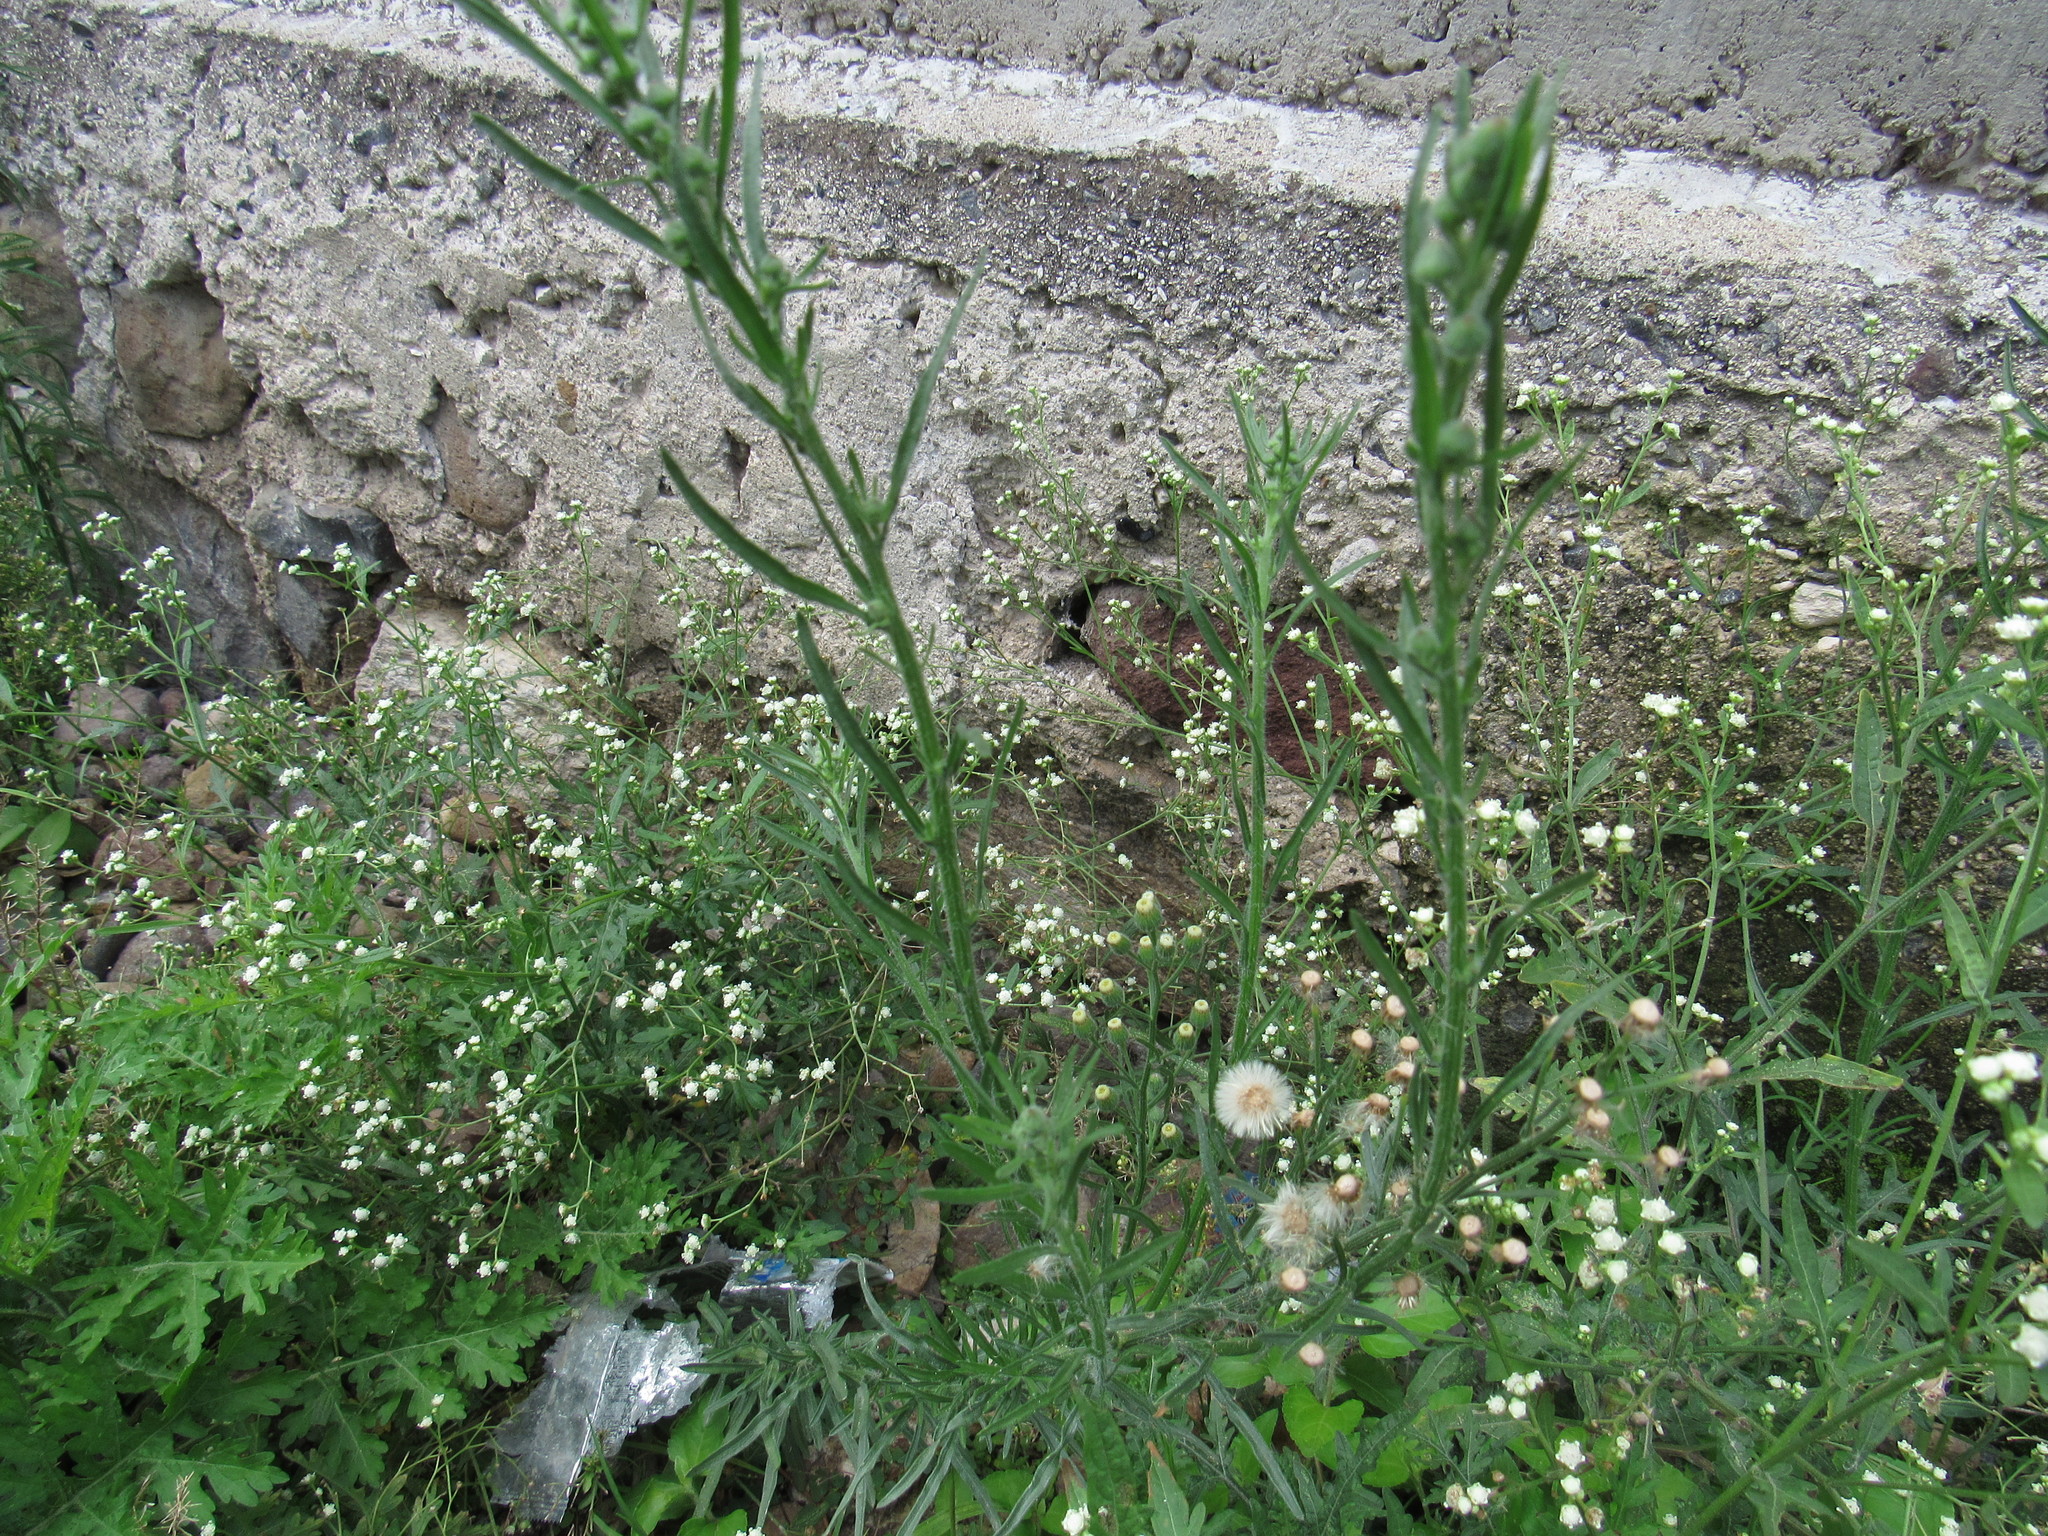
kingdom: Plantae
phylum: Tracheophyta
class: Magnoliopsida
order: Asterales
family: Asteraceae
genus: Erigeron
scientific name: Erigeron bonariensis
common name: Argentine fleabane
